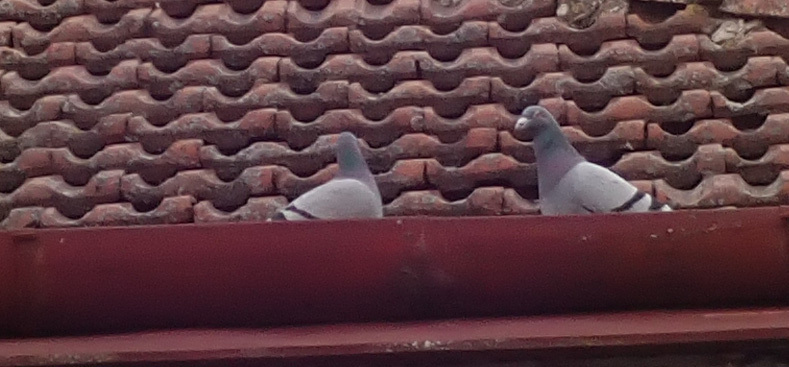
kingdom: Animalia
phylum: Chordata
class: Aves
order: Columbiformes
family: Columbidae
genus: Columba
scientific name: Columba livia
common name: Rock pigeon
